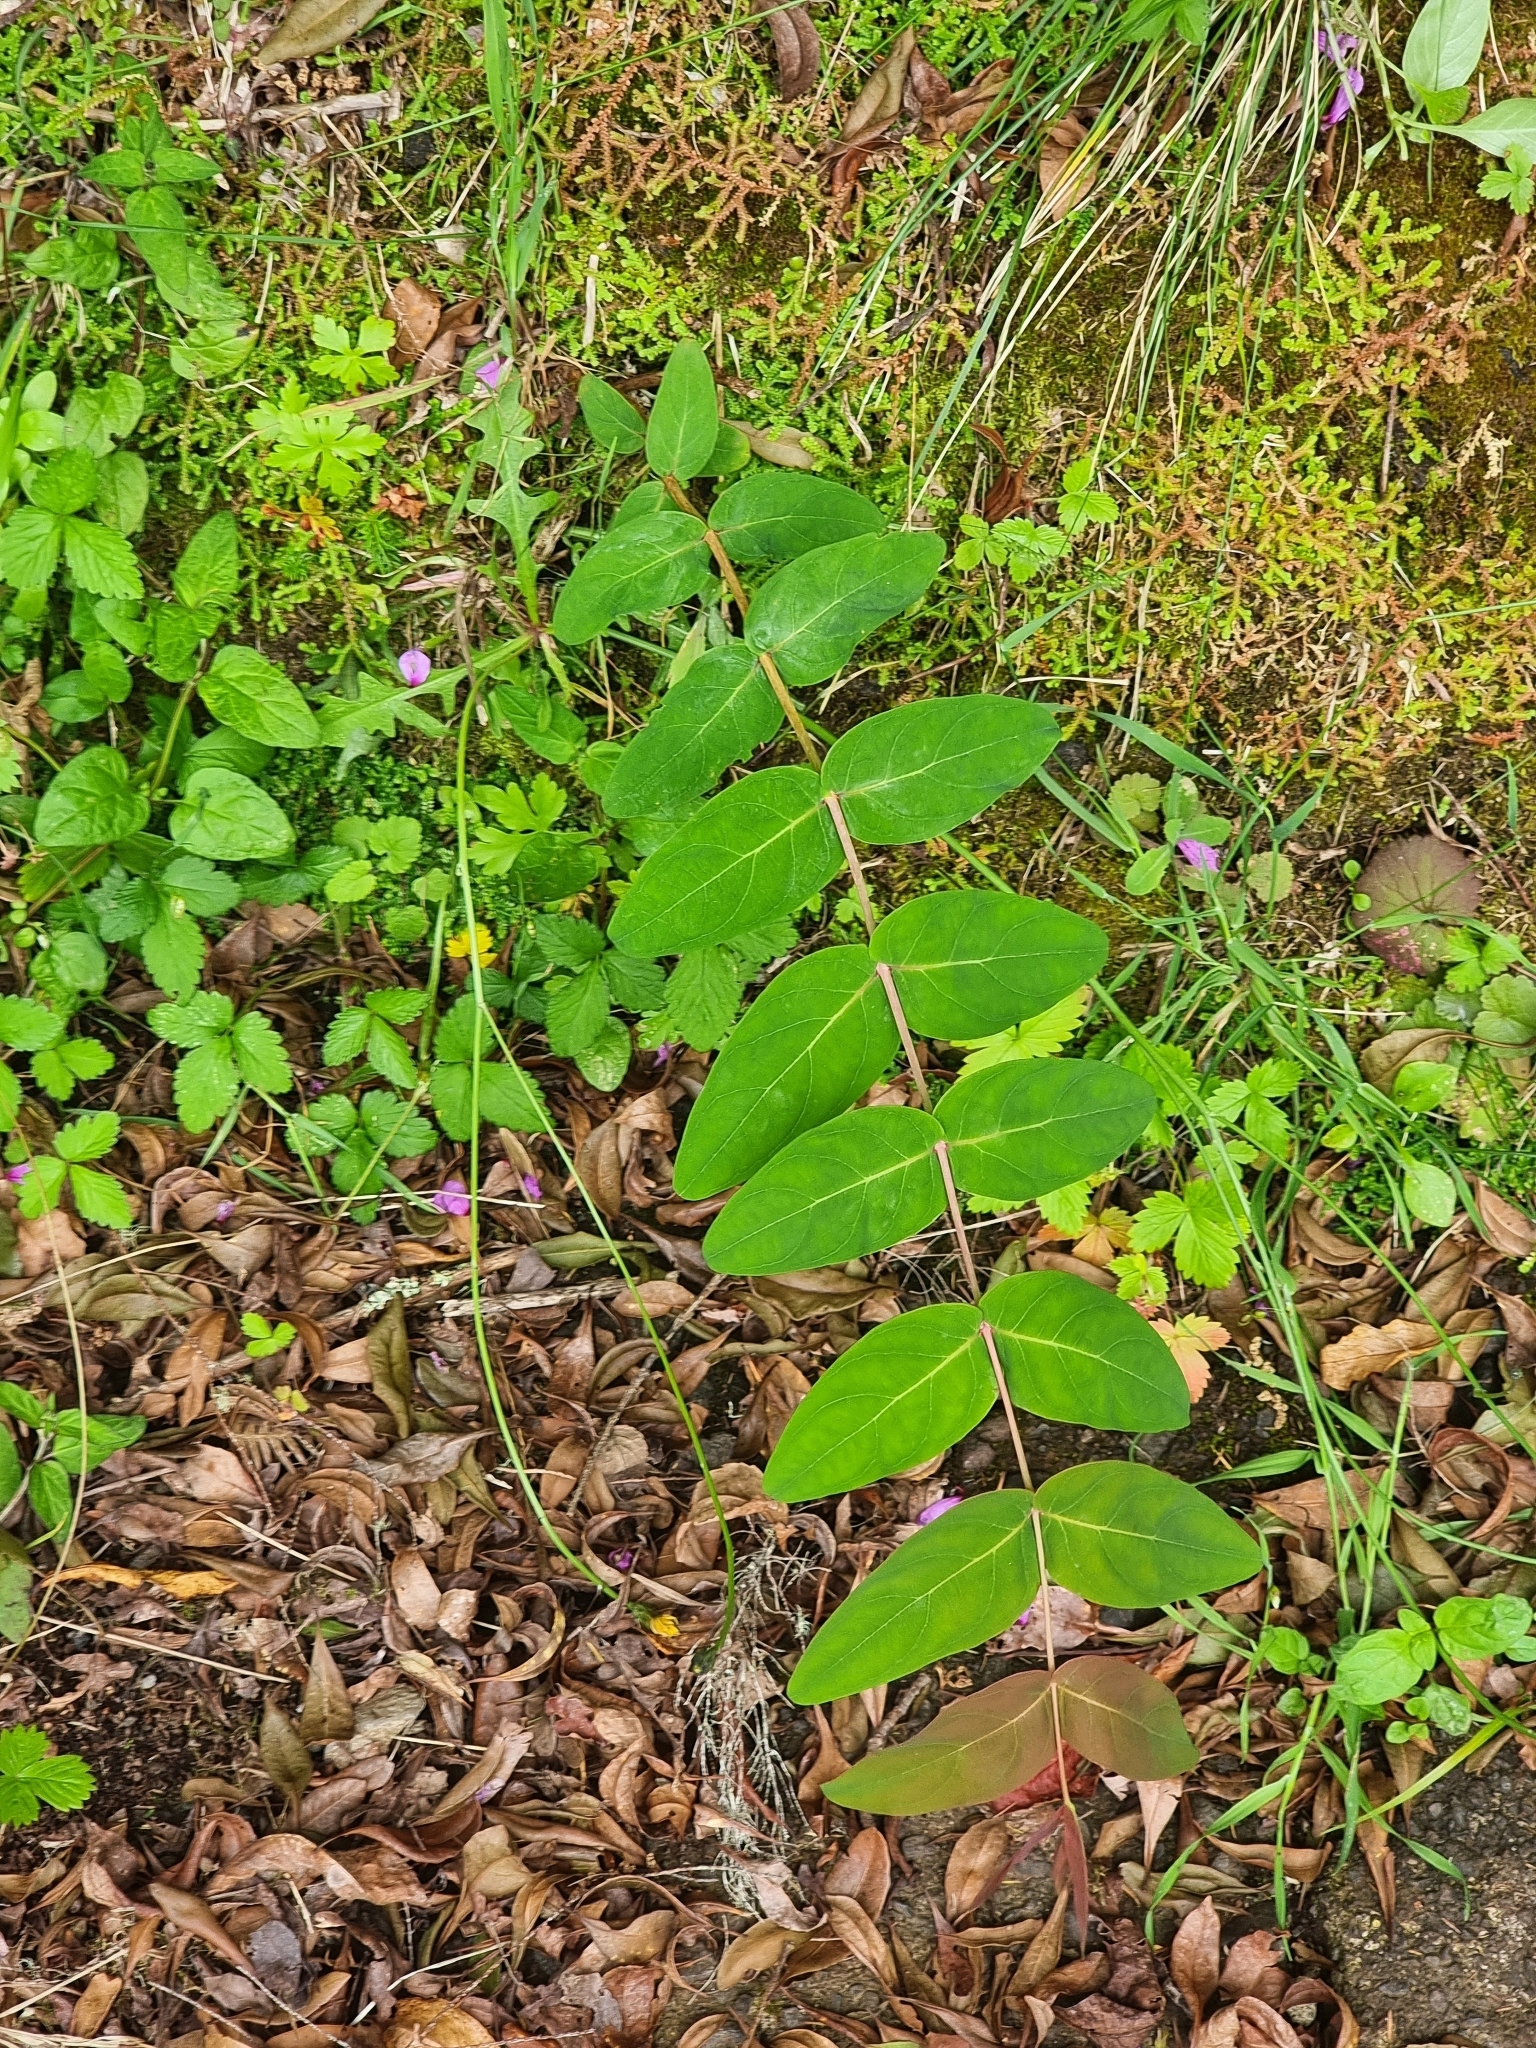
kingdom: Plantae
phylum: Tracheophyta
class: Magnoliopsida
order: Malpighiales
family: Hypericaceae
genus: Hypericum
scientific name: Hypericum grandifolium
